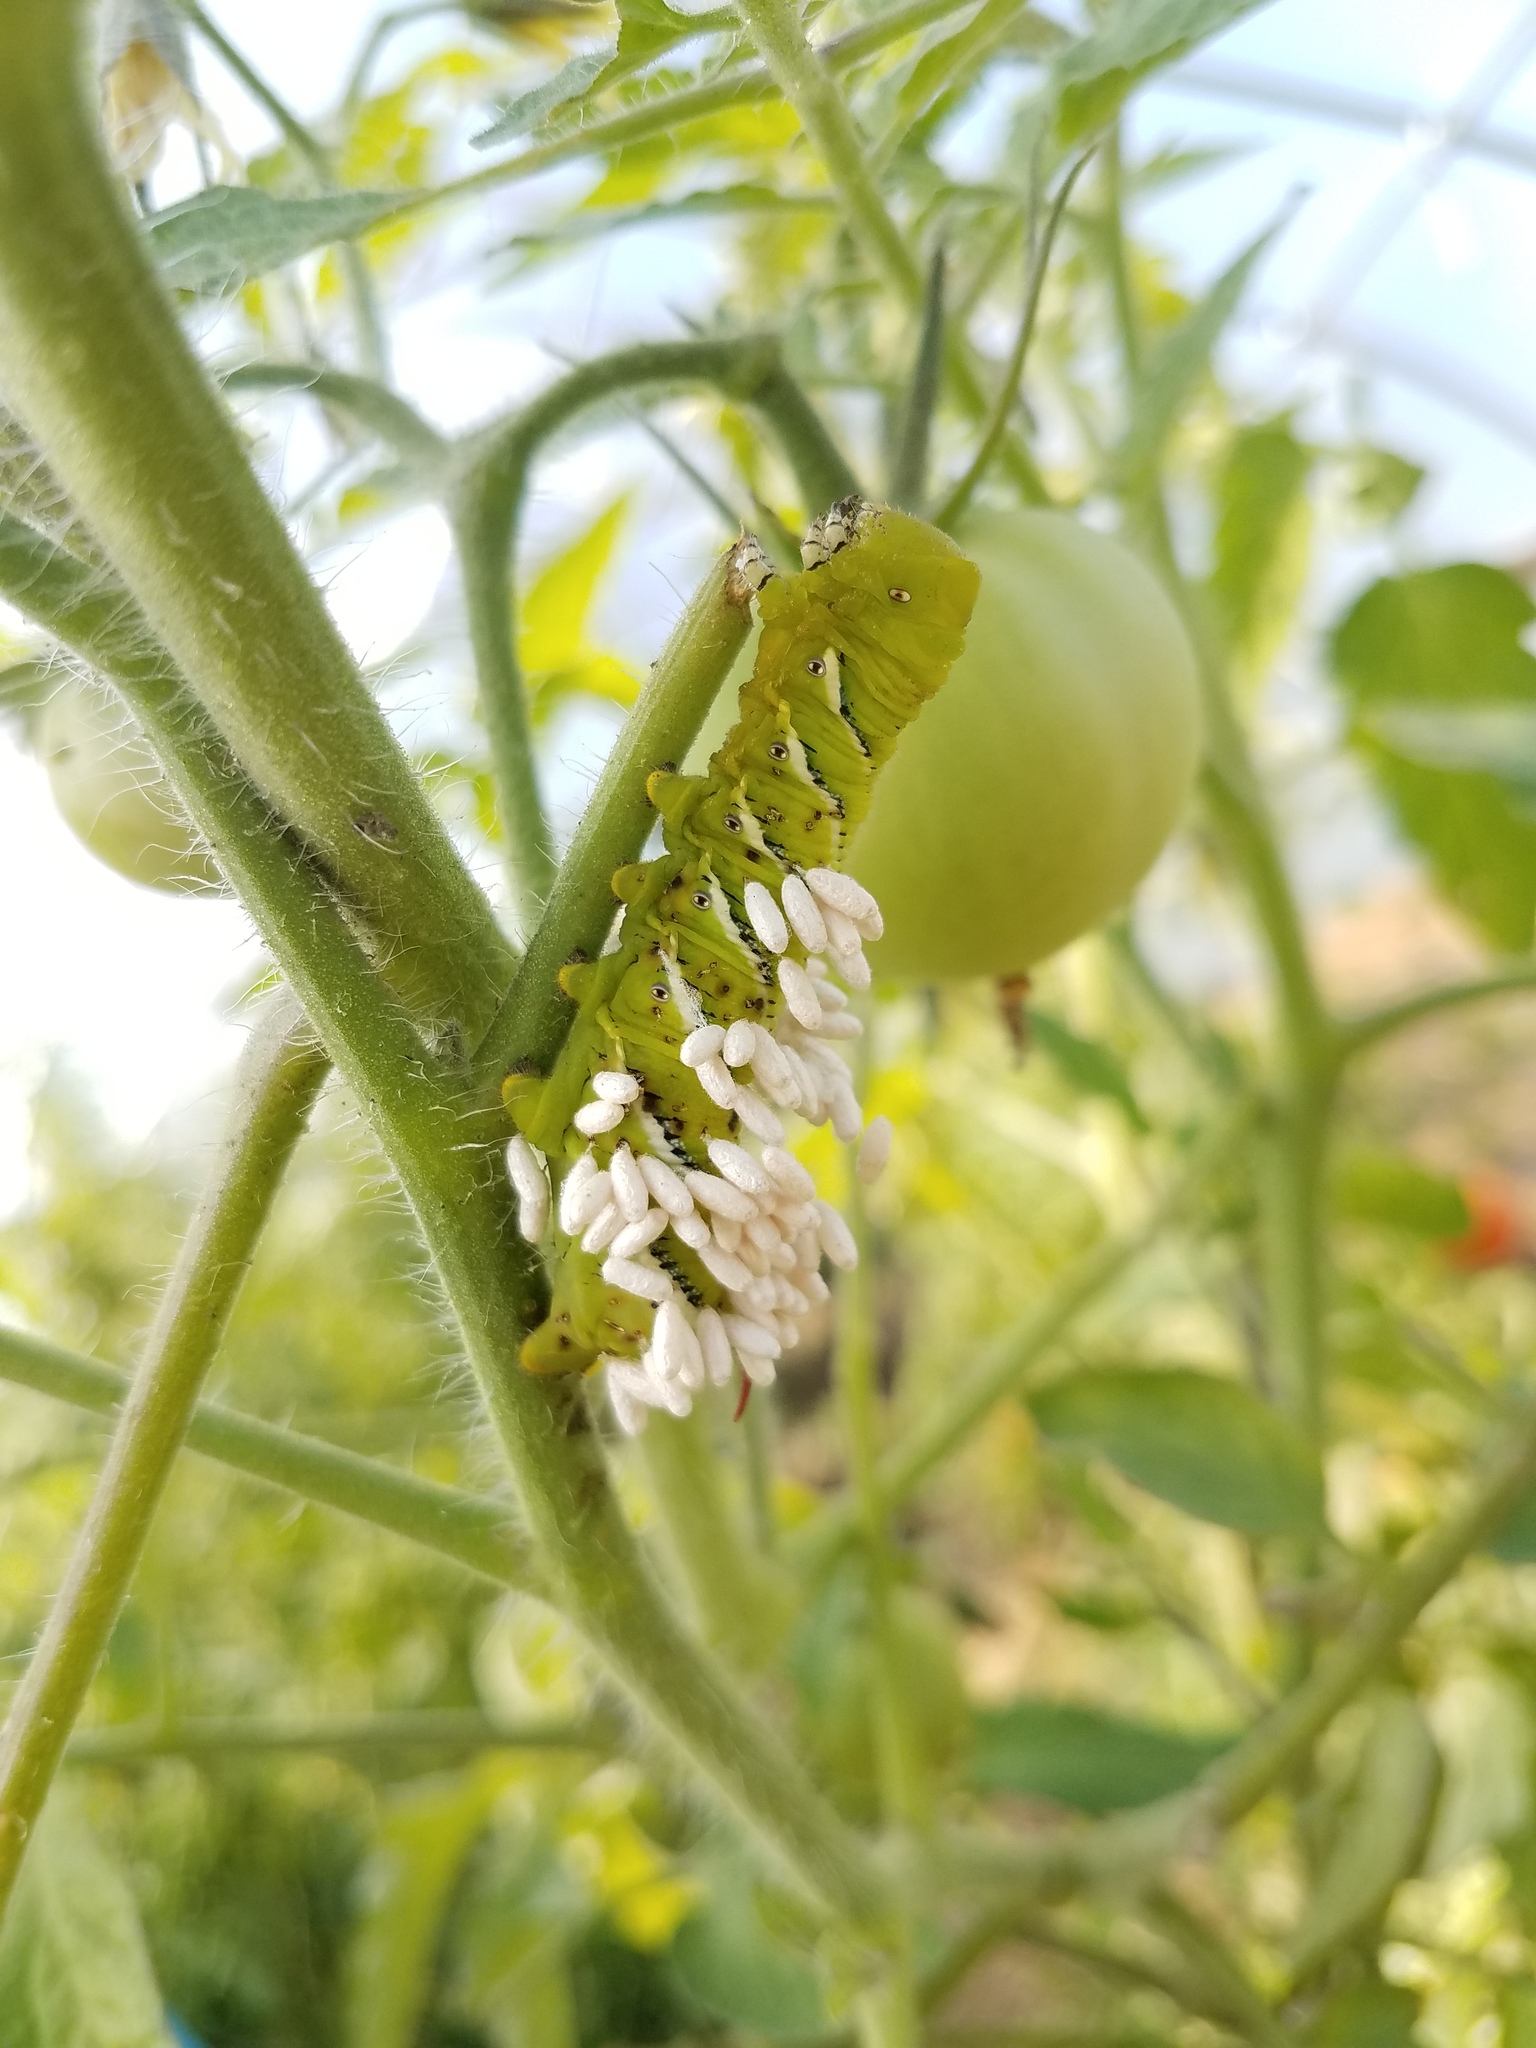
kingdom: Animalia
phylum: Arthropoda
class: Insecta
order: Hymenoptera
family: Braconidae
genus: Cotesia
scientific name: Cotesia congregata
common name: Hornworm parasitoid wasp
